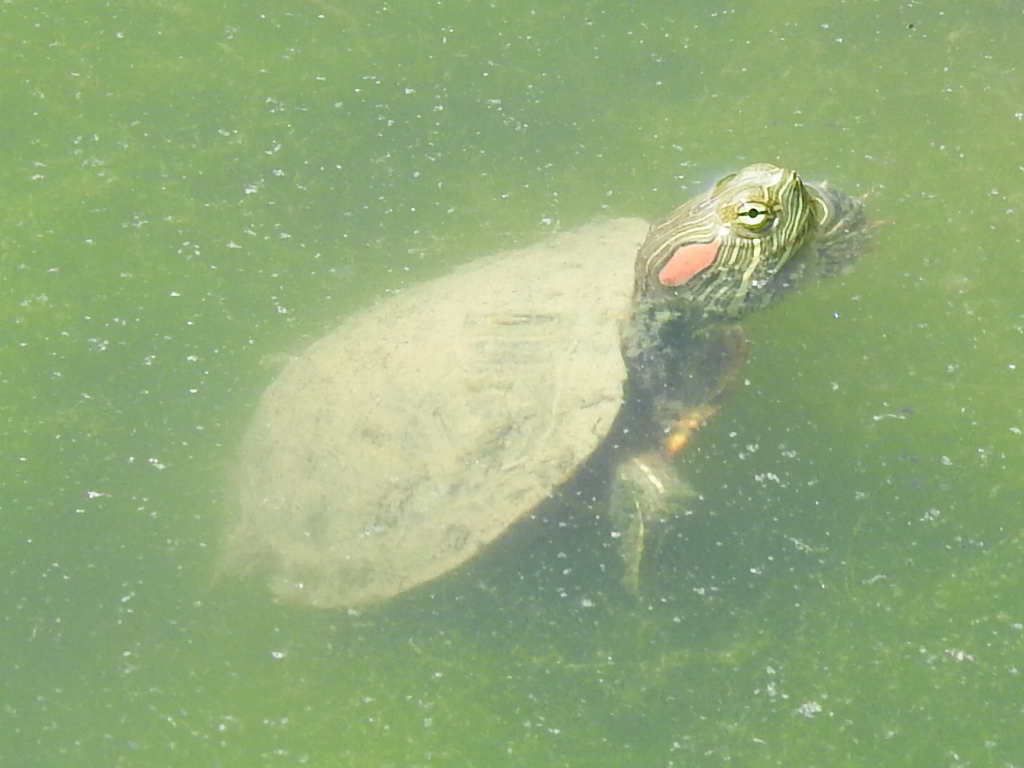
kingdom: Animalia
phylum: Chordata
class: Testudines
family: Emydidae
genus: Trachemys
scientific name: Trachemys scripta
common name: Slider
